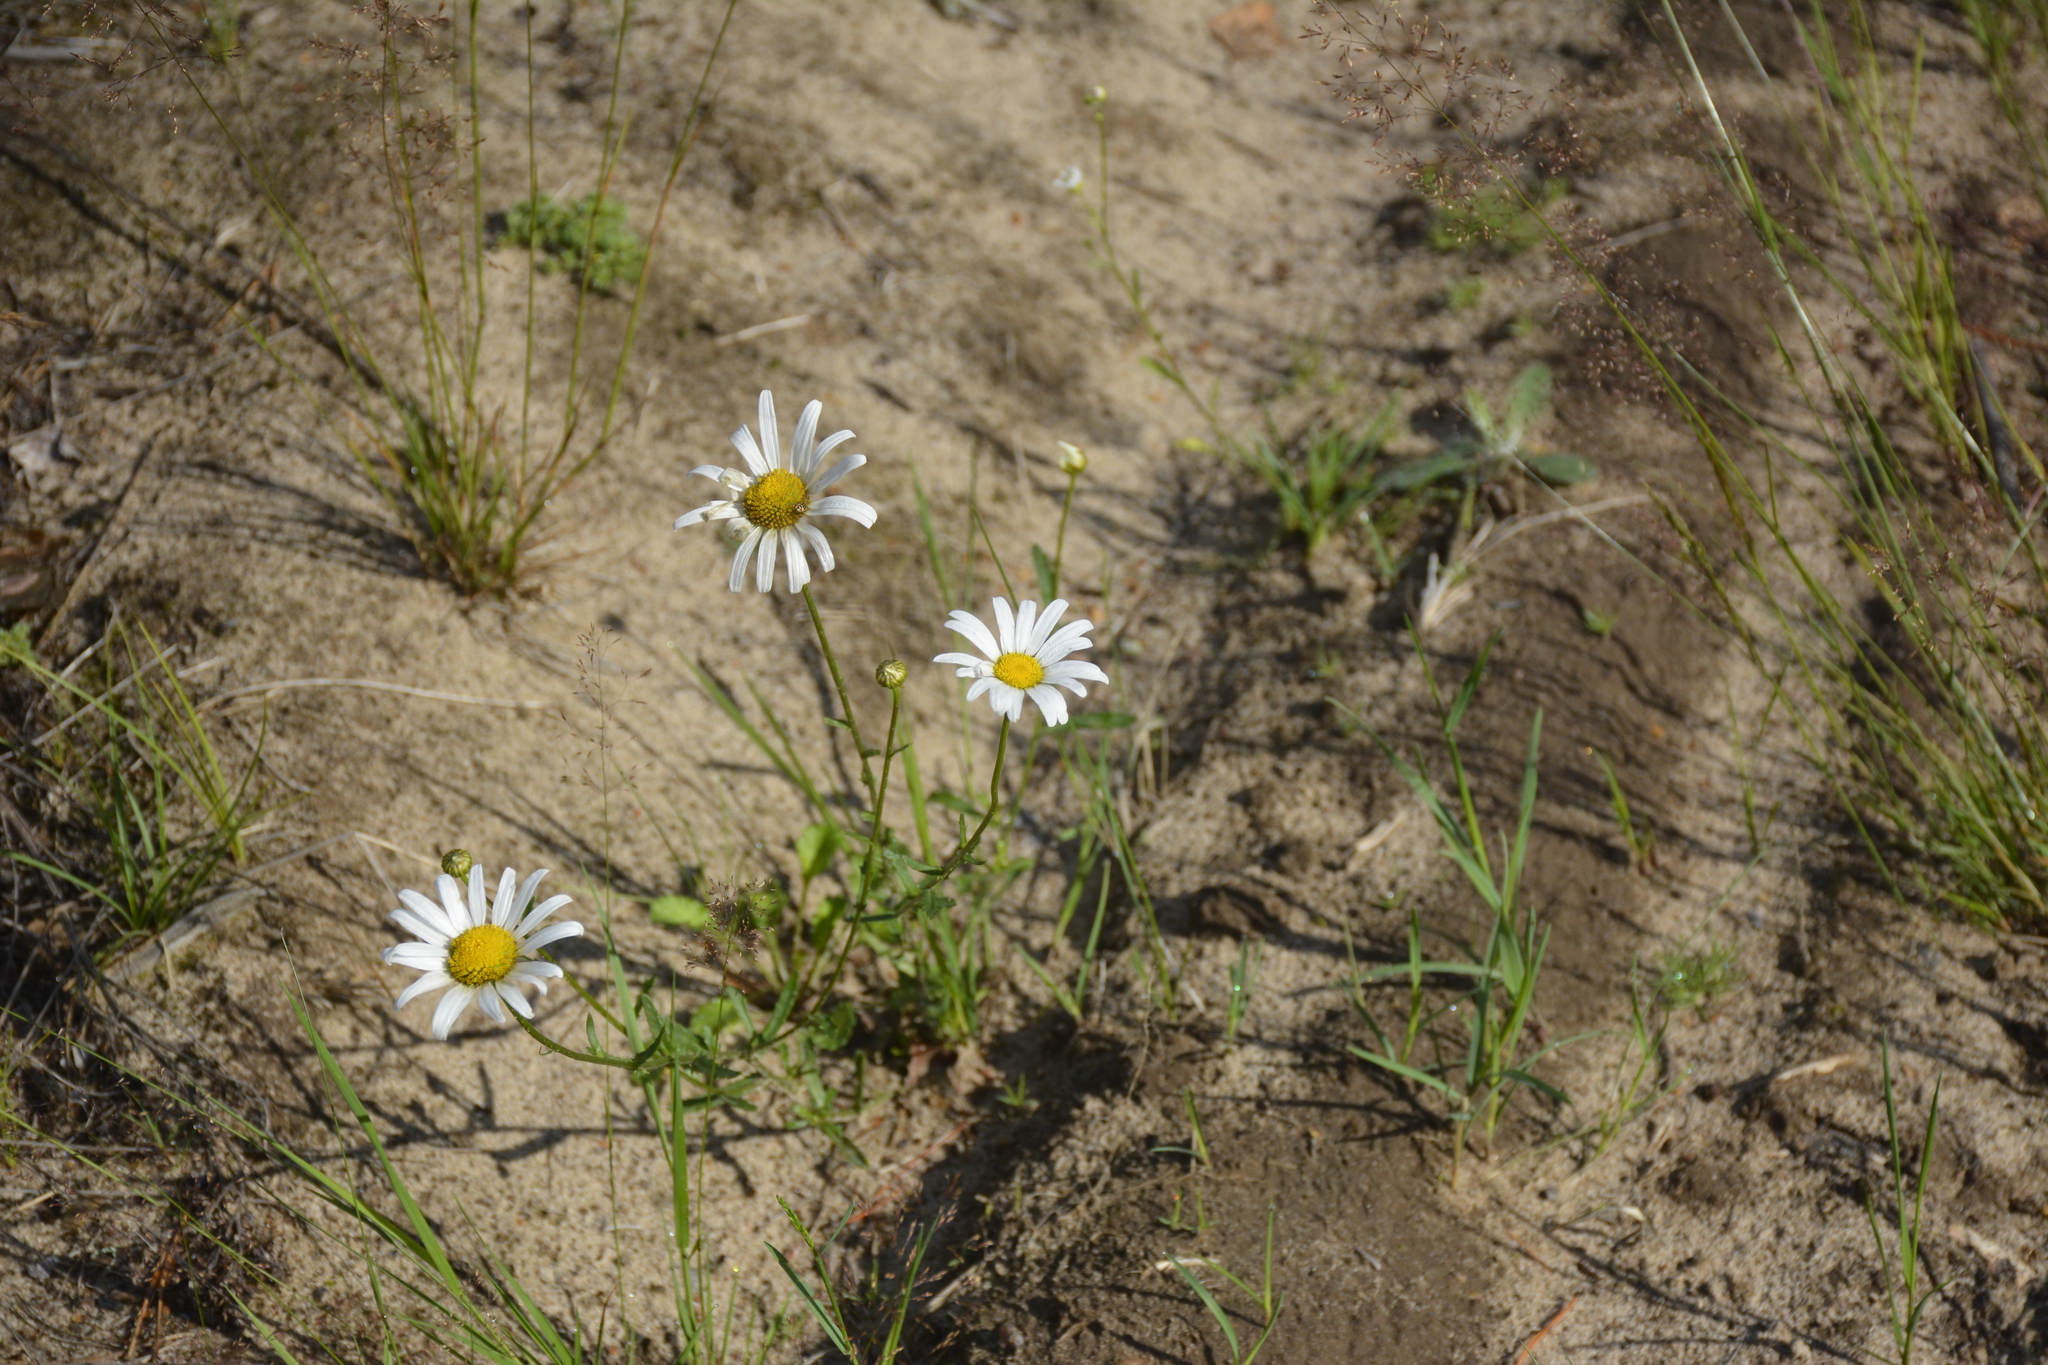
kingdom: Plantae
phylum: Tracheophyta
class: Magnoliopsida
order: Asterales
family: Asteraceae
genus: Leucanthemum
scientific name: Leucanthemum vulgare
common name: Oxeye daisy
